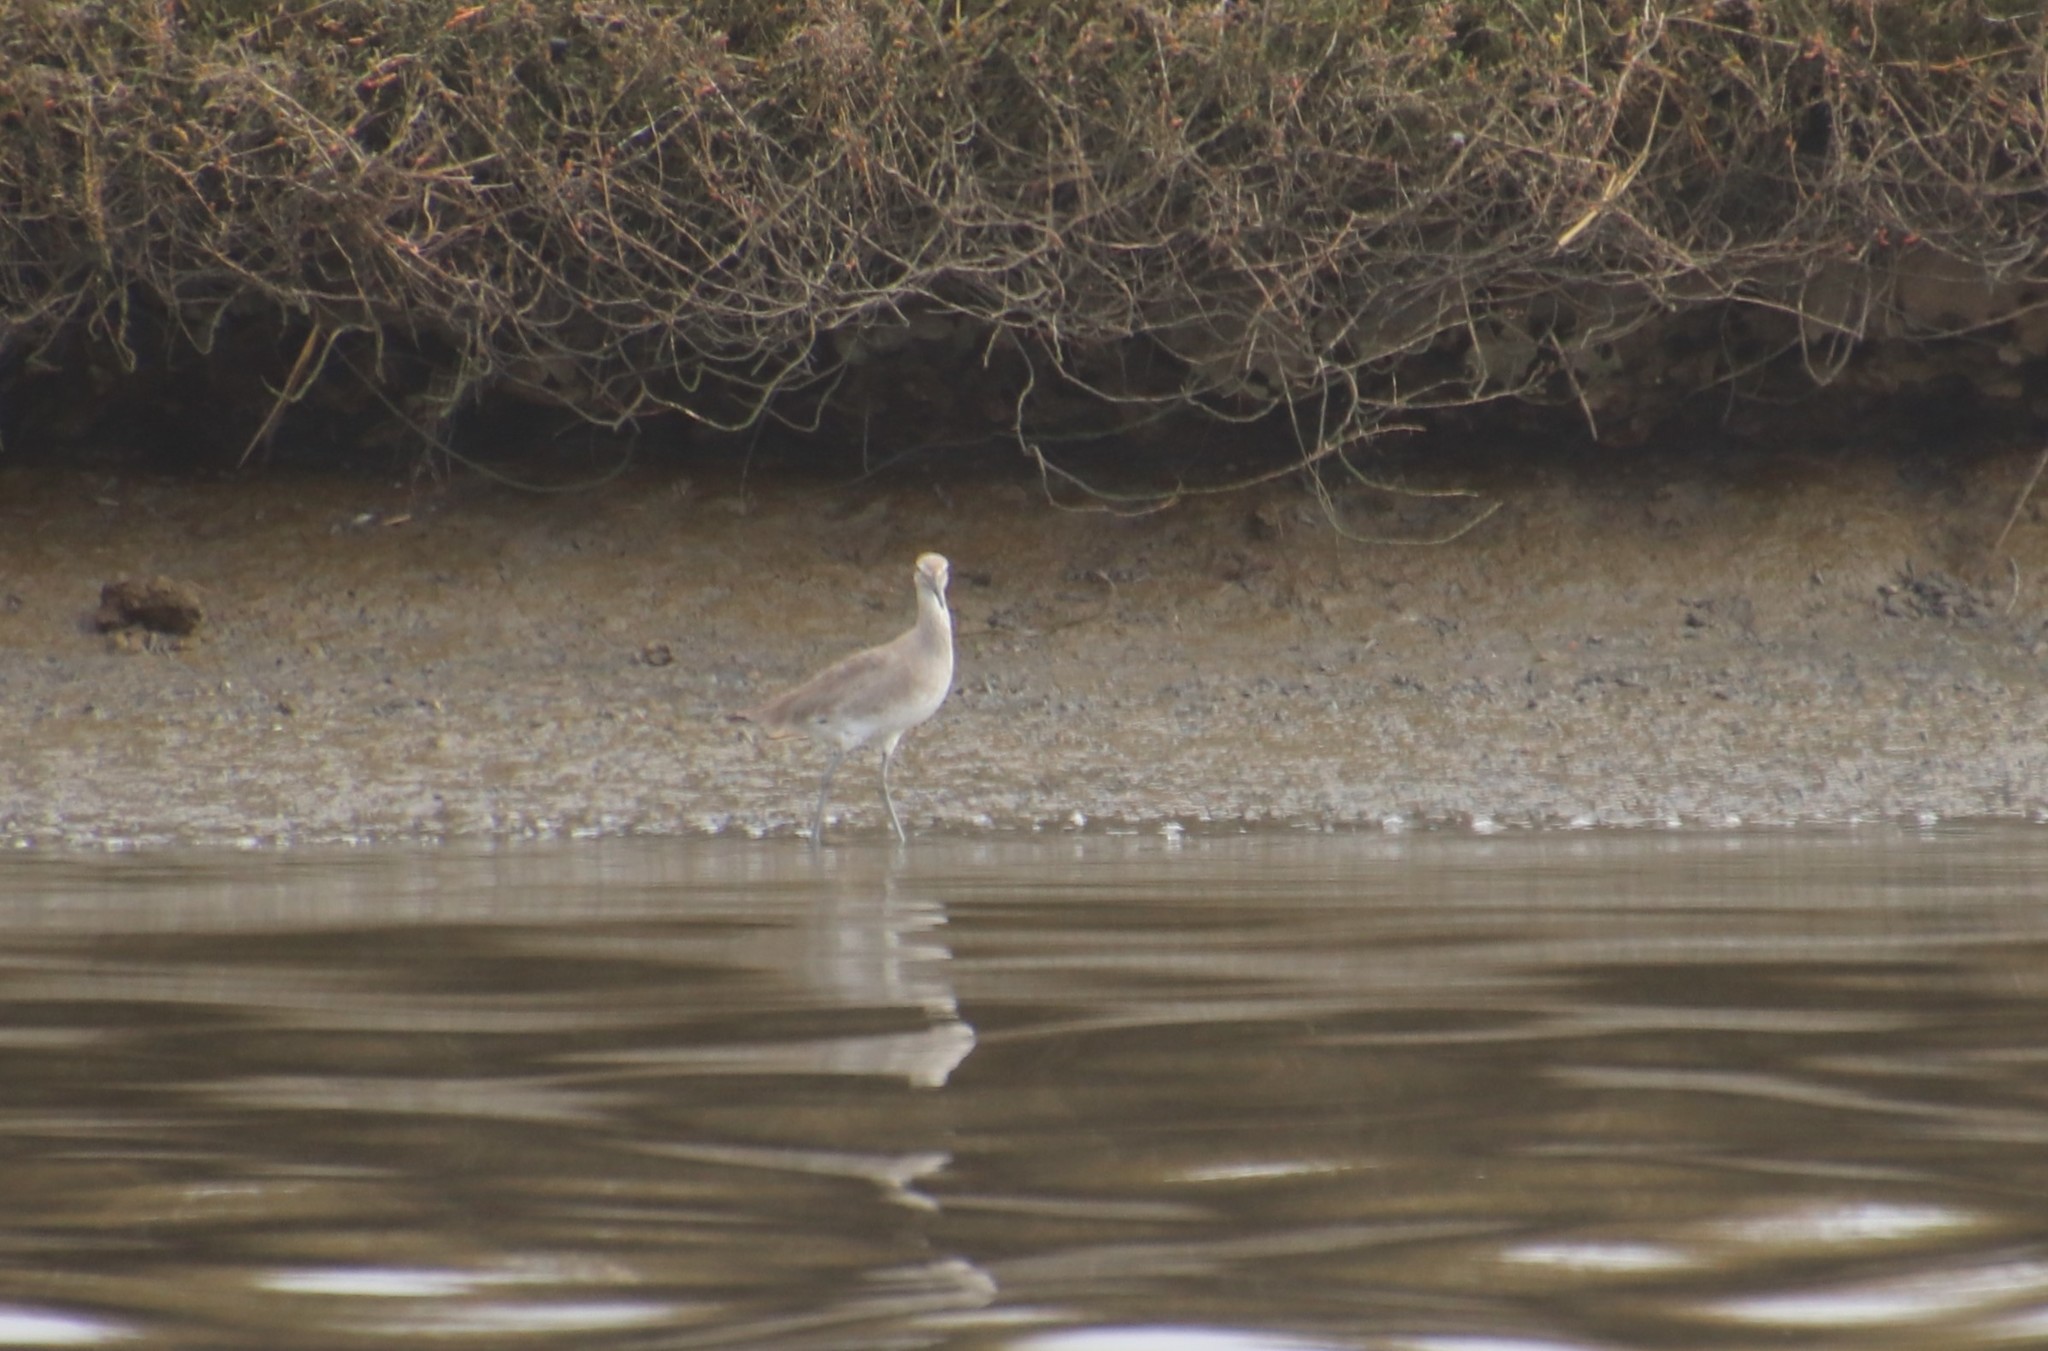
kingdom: Animalia
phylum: Chordata
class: Aves
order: Charadriiformes
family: Scolopacidae
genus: Tringa
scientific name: Tringa semipalmata
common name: Willet
